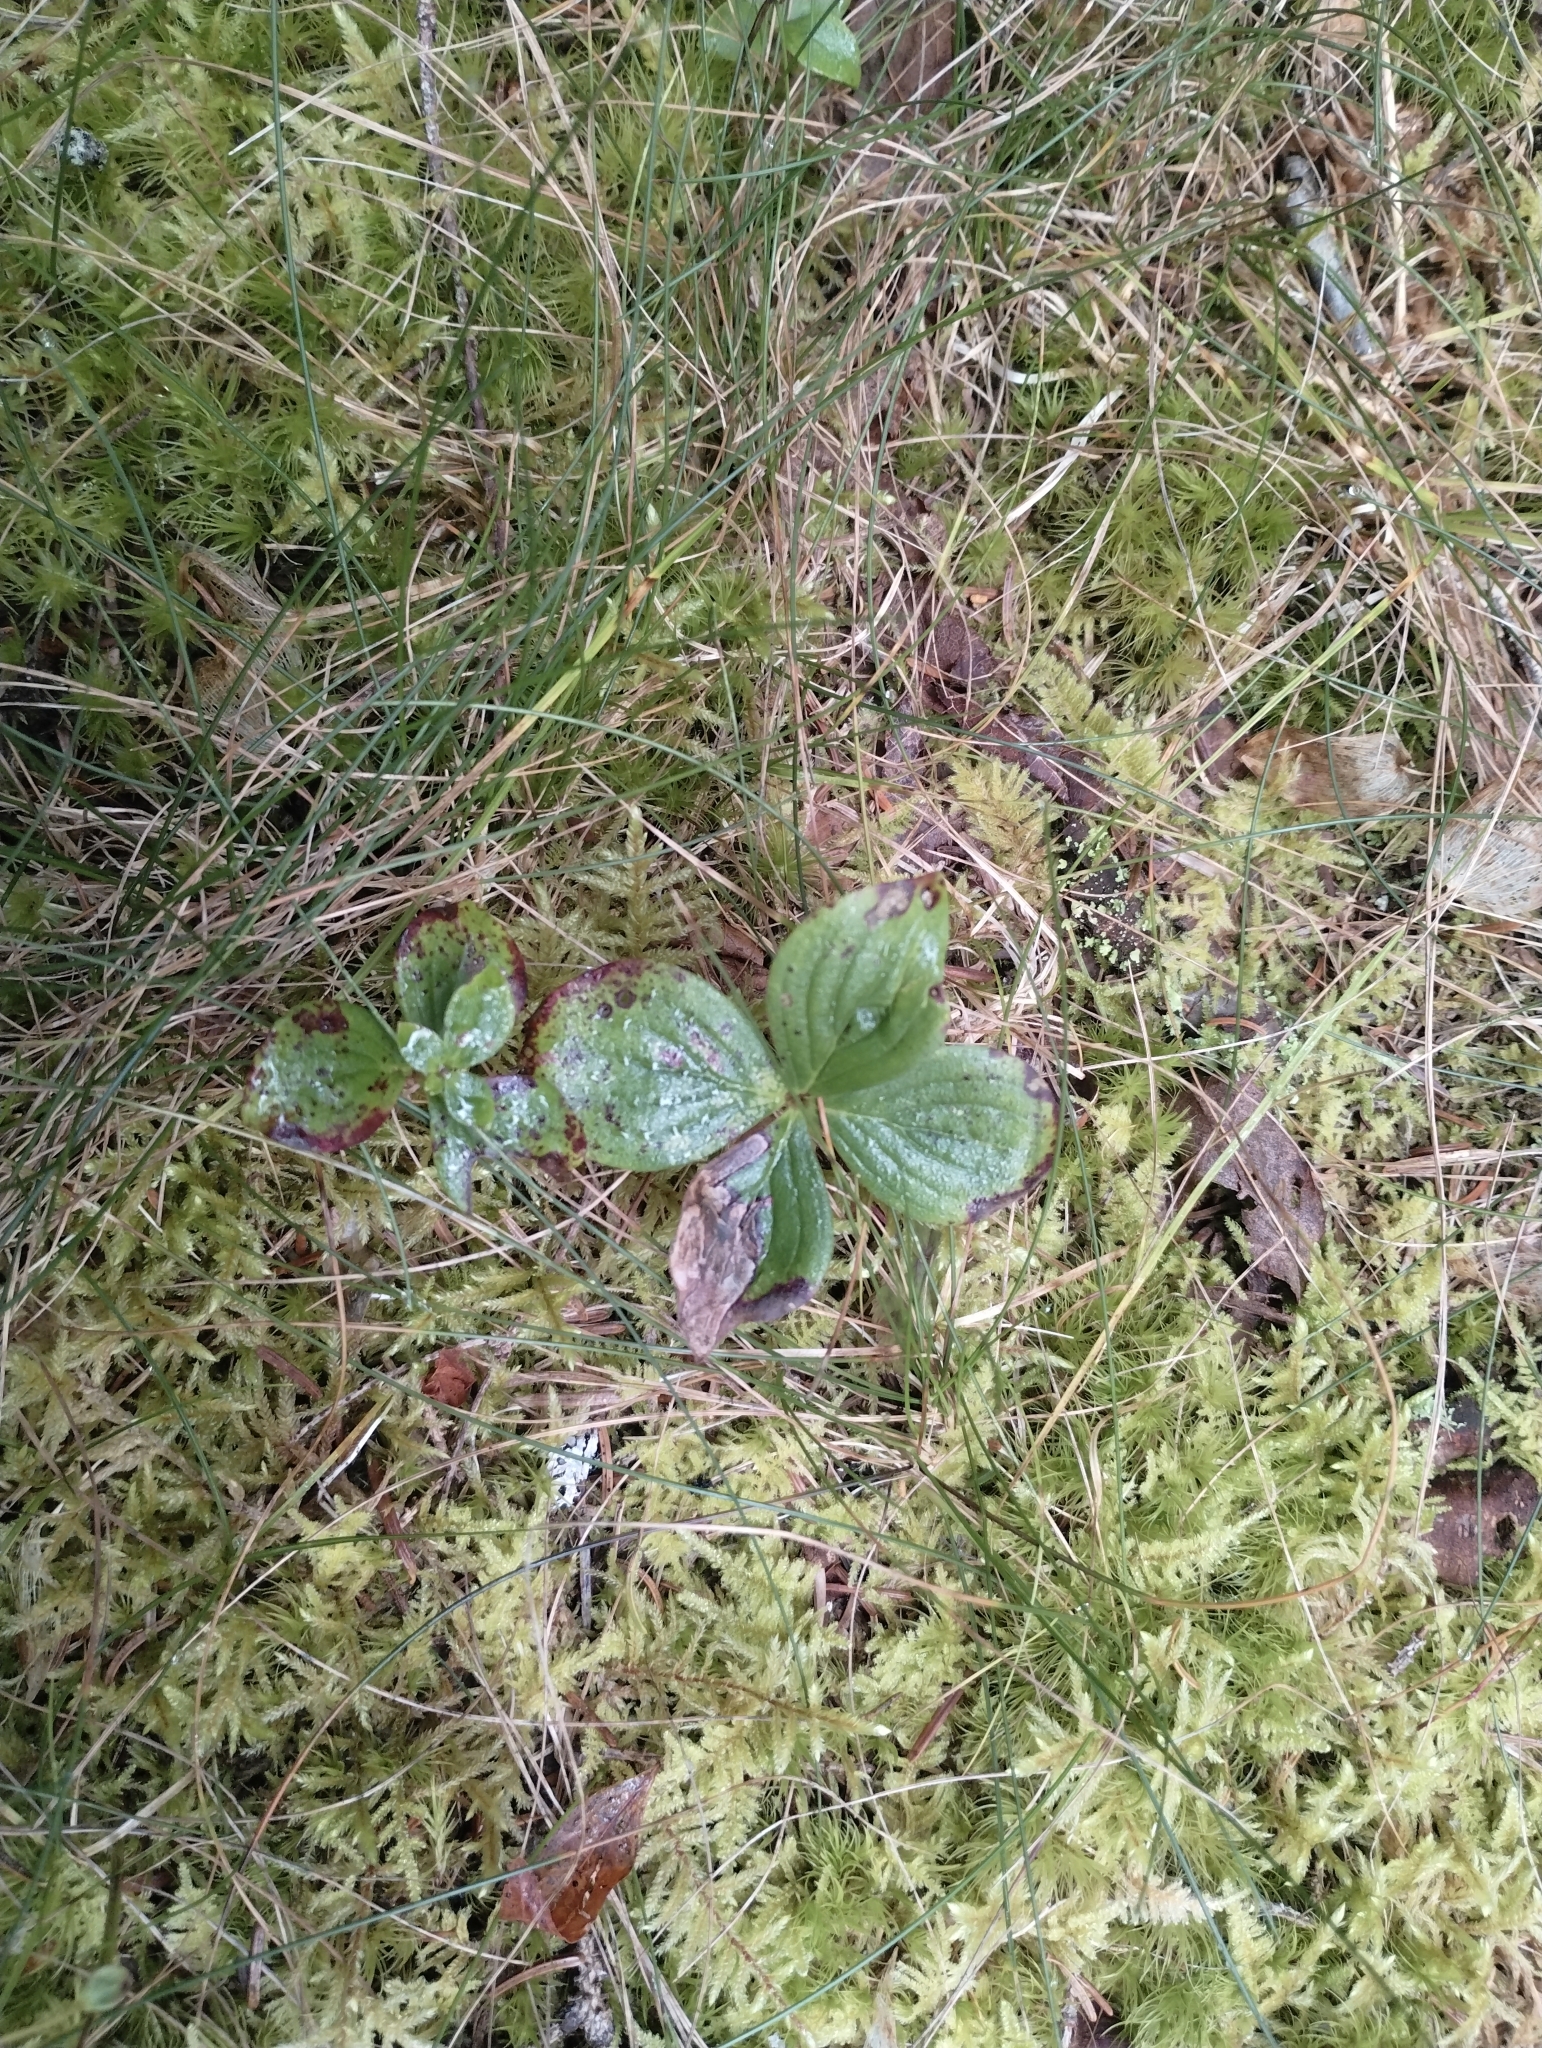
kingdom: Plantae
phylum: Tracheophyta
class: Magnoliopsida
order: Cornales
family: Cornaceae
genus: Cornus
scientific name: Cornus canadensis
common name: Creeping dogwood
